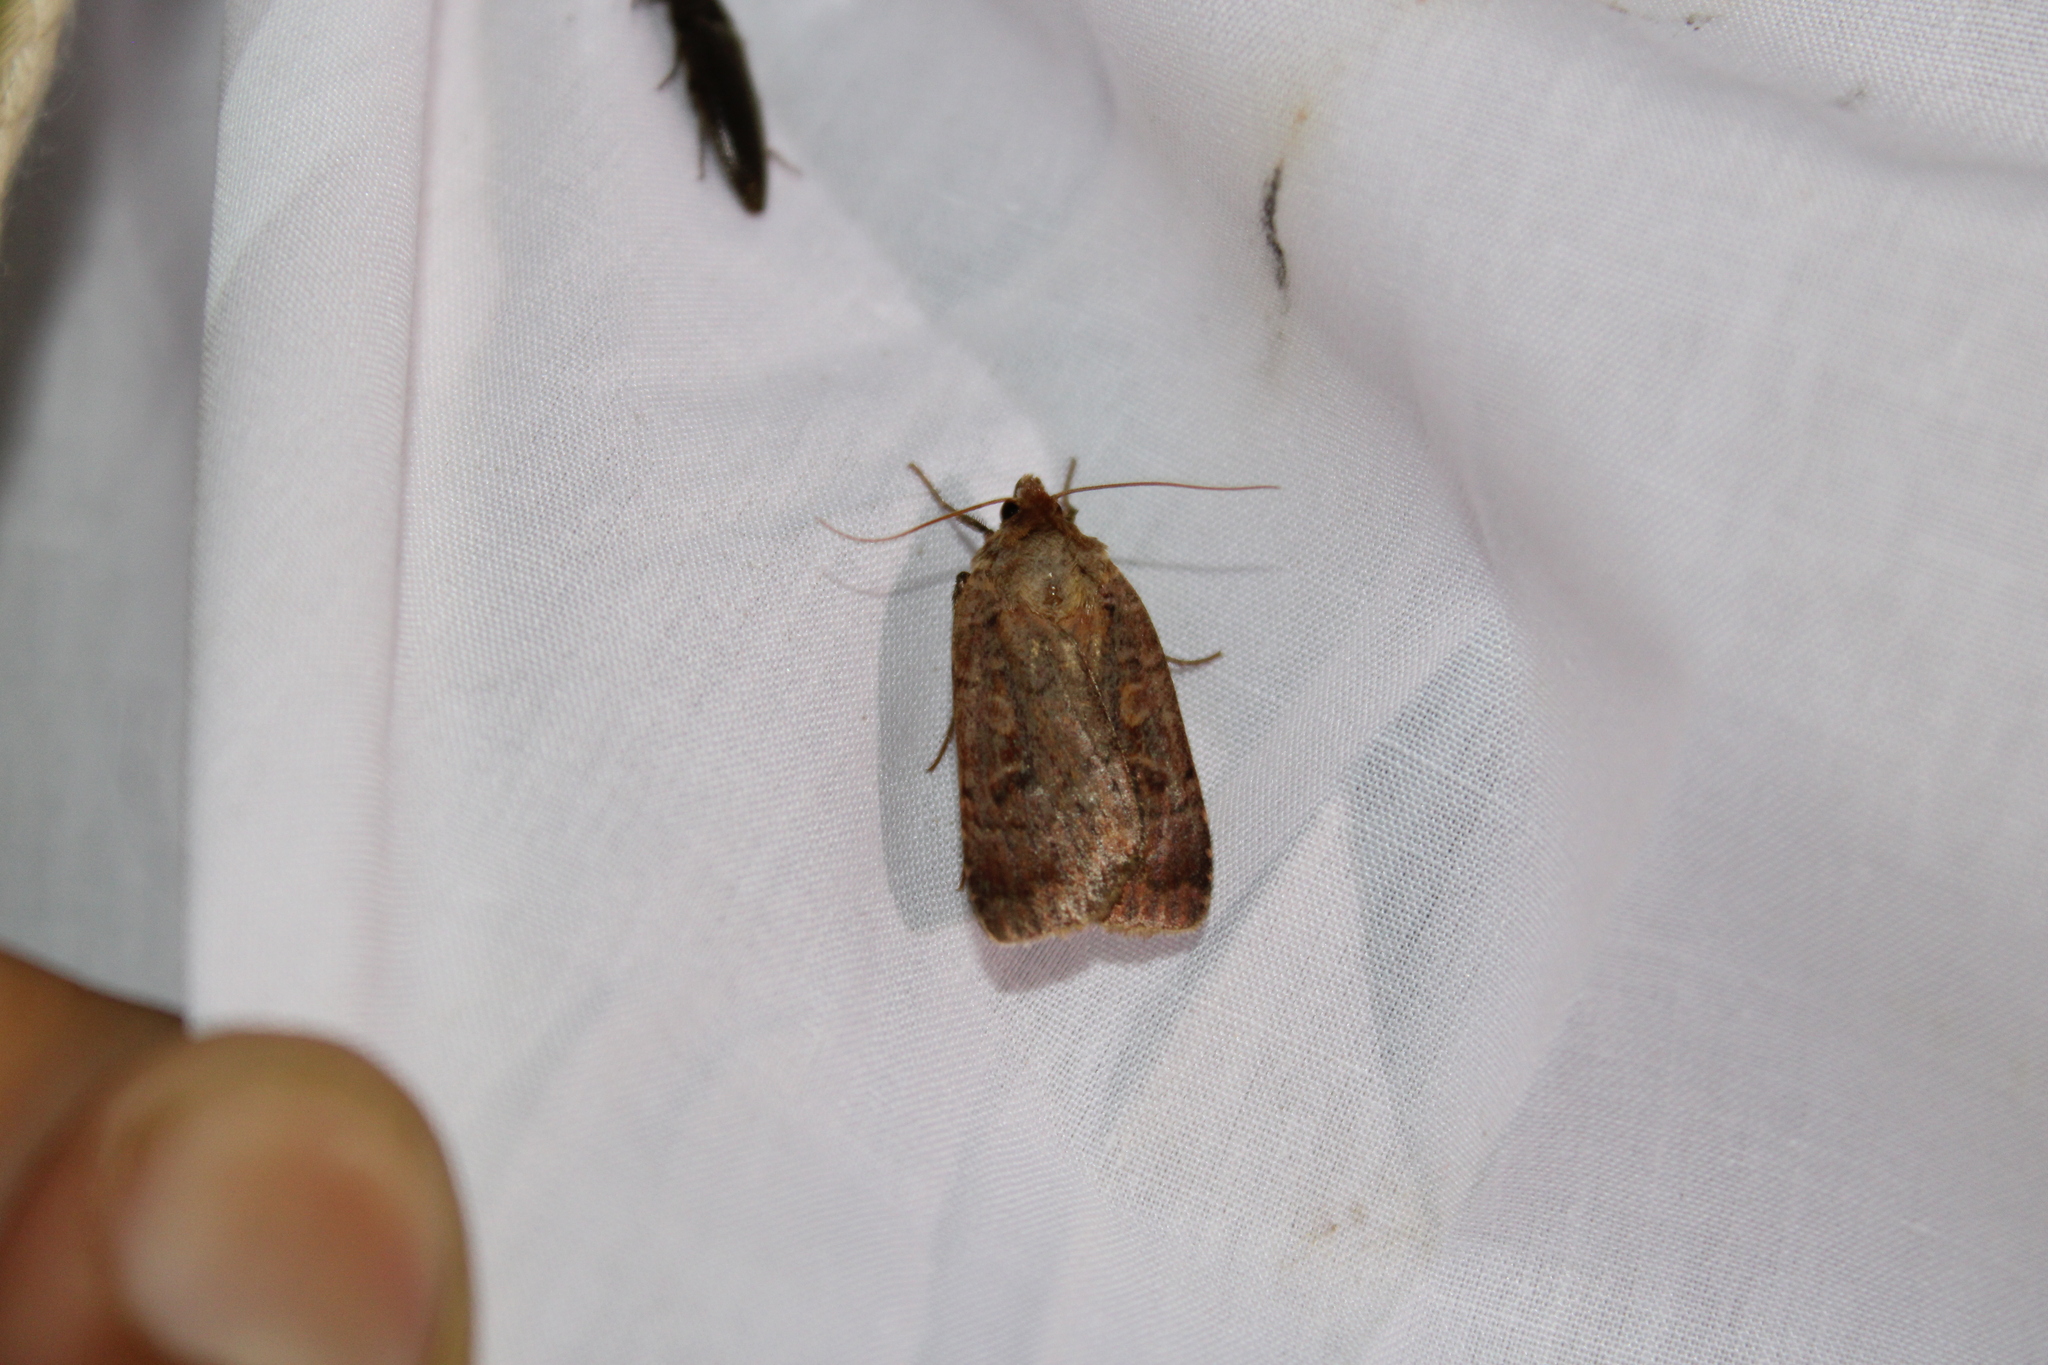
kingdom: Animalia
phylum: Arthropoda
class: Insecta
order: Lepidoptera
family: Noctuidae
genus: Lycophotia
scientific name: Lycophotia phyllophora
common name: Lycophotia moth
